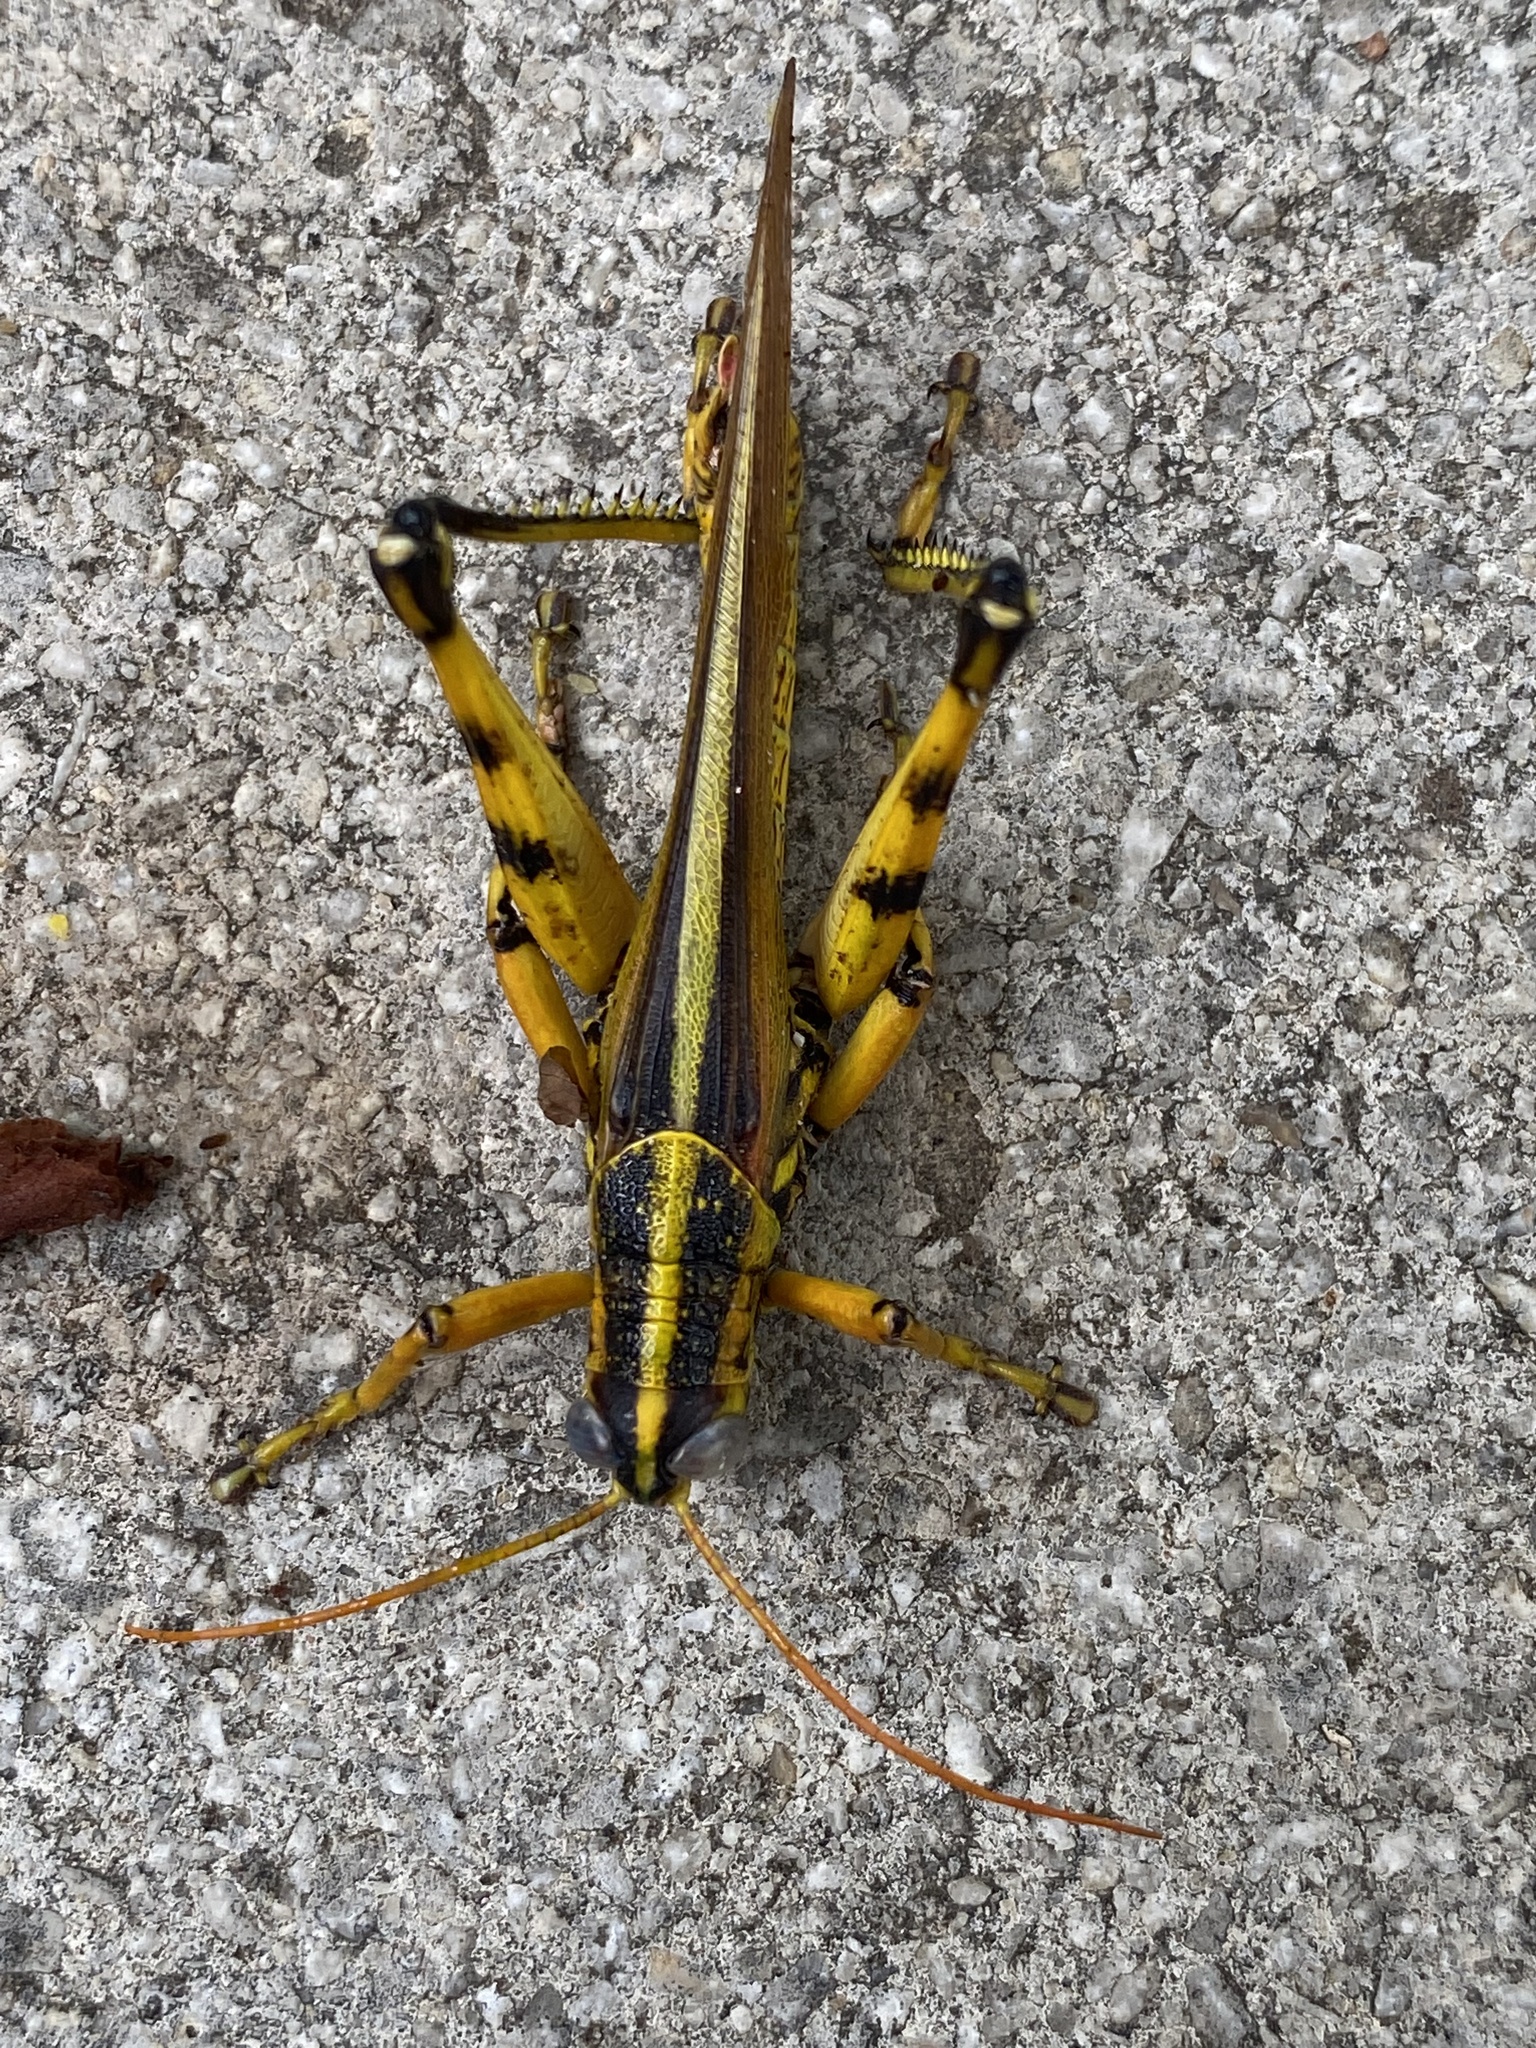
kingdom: Animalia
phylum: Arthropoda
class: Insecta
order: Orthoptera
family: Acrididae
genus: Schistocerca
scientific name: Schistocerca lineata
